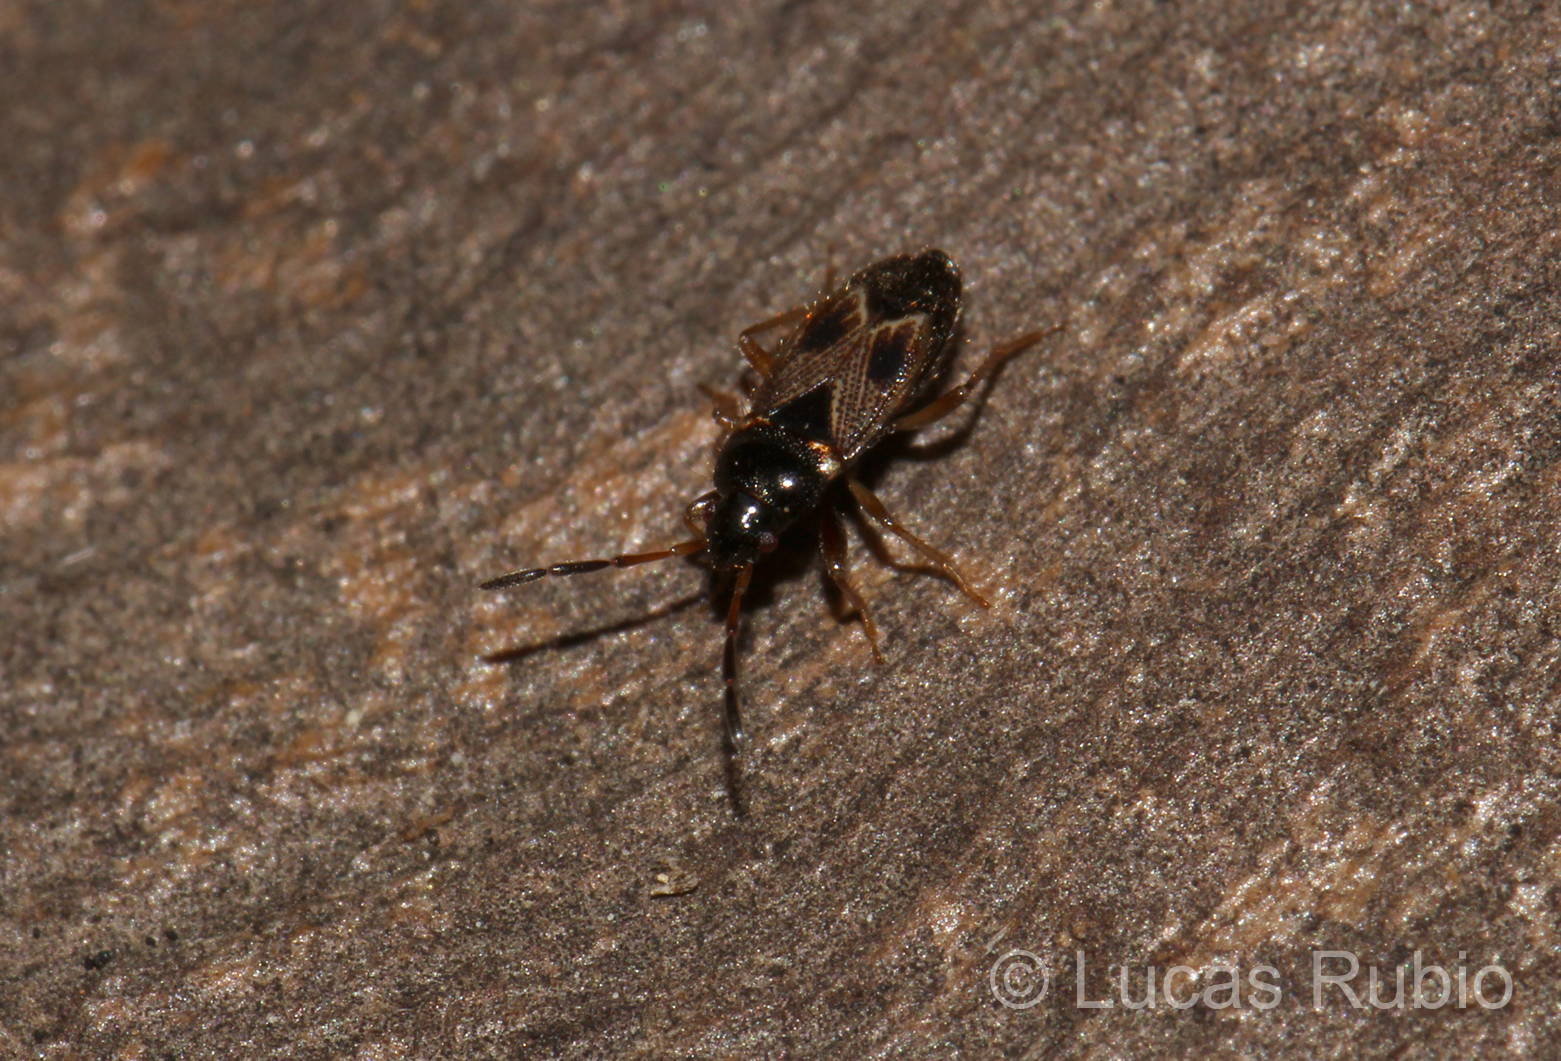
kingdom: Animalia
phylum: Arthropoda
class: Insecta
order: Hemiptera
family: Rhyparochromidae
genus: Cryphula
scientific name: Cryphula dubia
